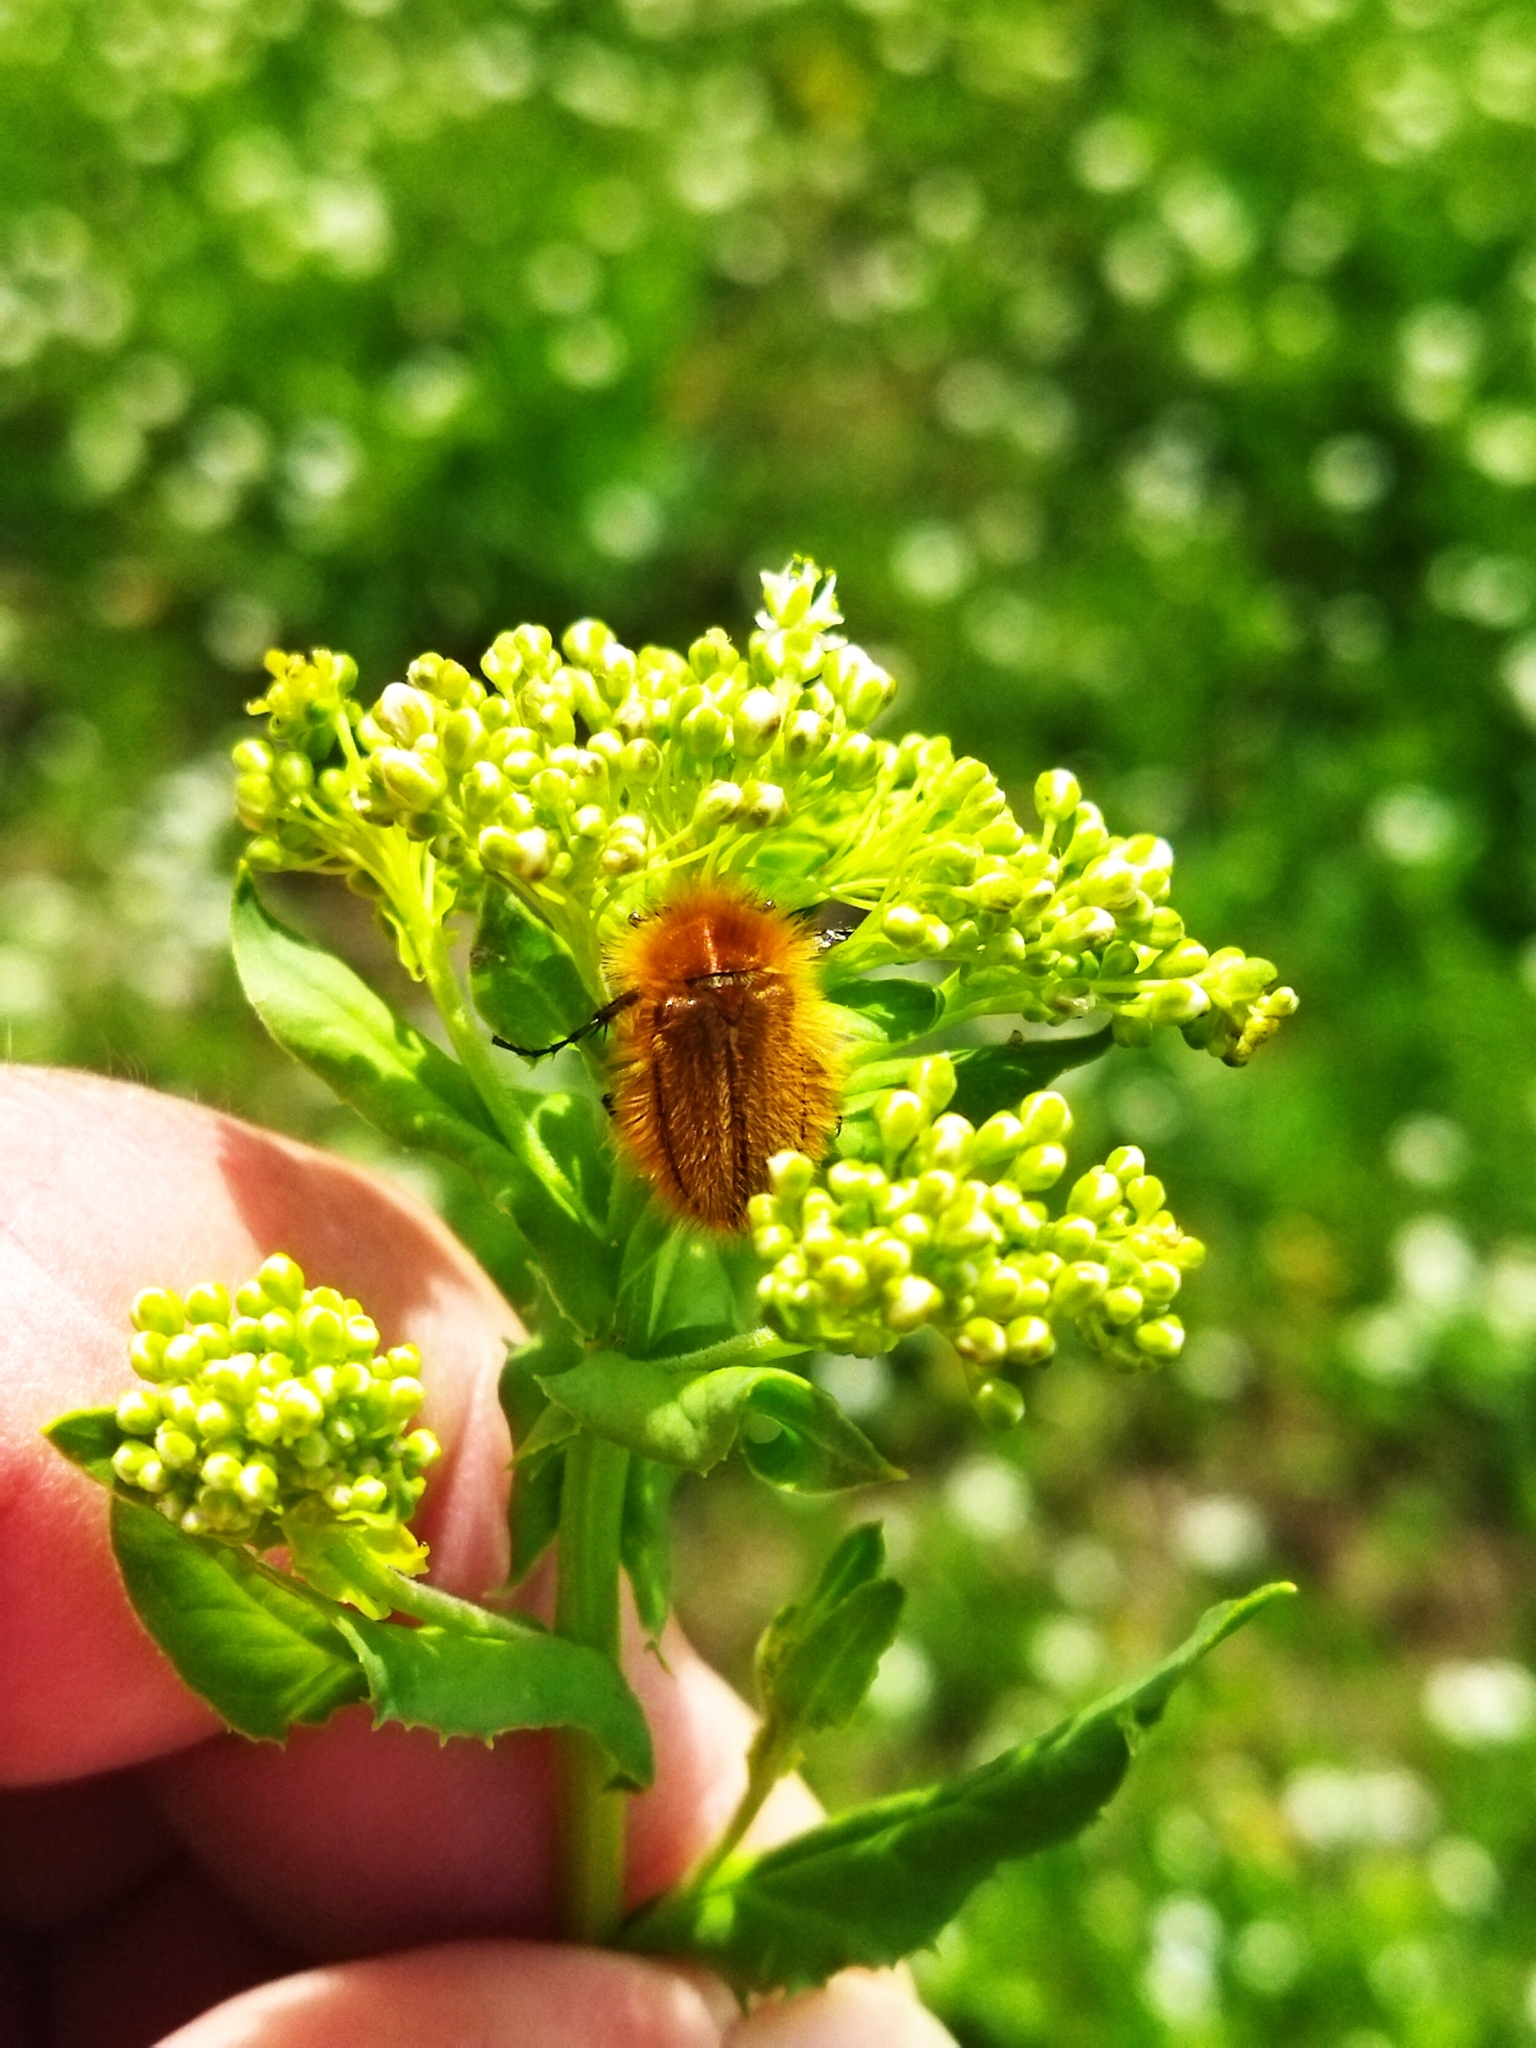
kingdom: Animalia
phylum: Arthropoda
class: Insecta
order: Coleoptera
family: Glaphyridae
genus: Pygopleurus
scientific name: Pygopleurus vulpes
